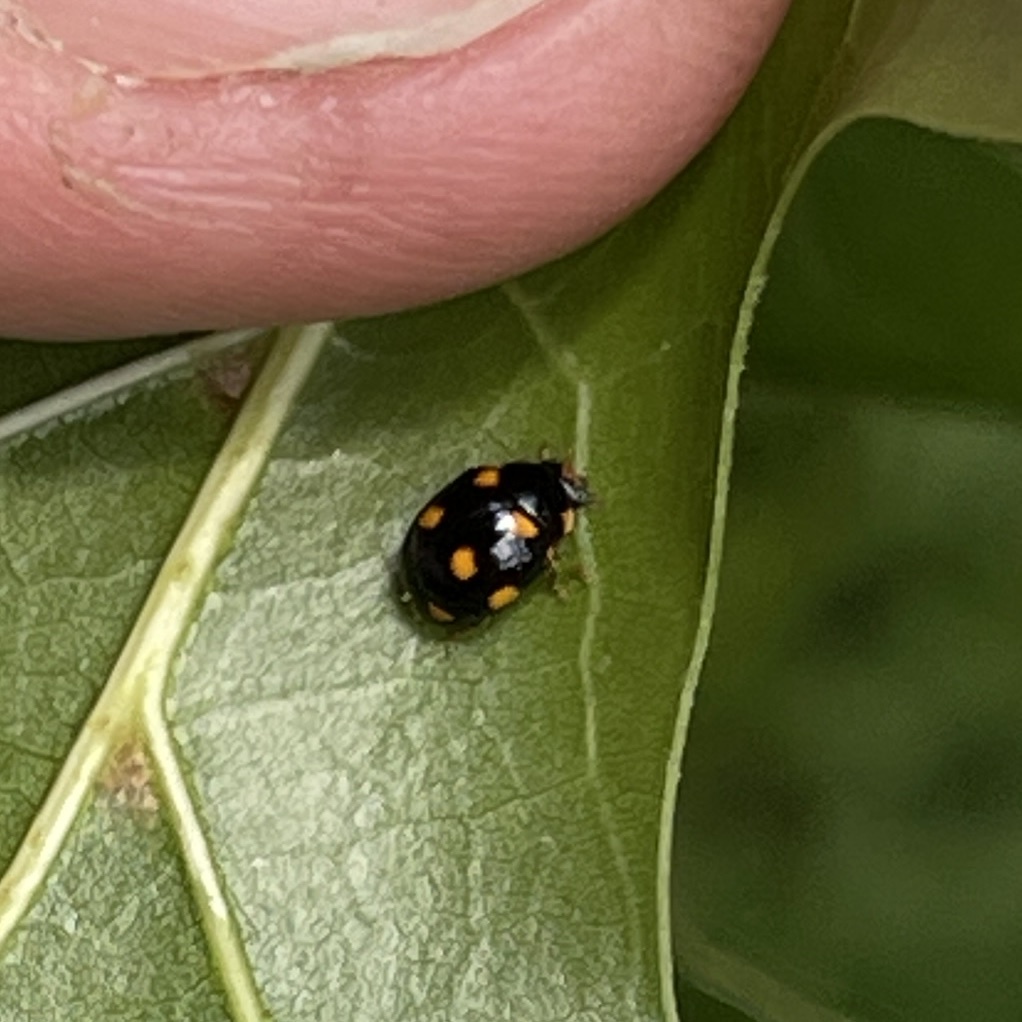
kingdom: Animalia
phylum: Arthropoda
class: Insecta
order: Coleoptera
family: Coccinellidae
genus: Brachiacantha
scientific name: Brachiacantha ursina
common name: Ursine spurleg lady beetle
